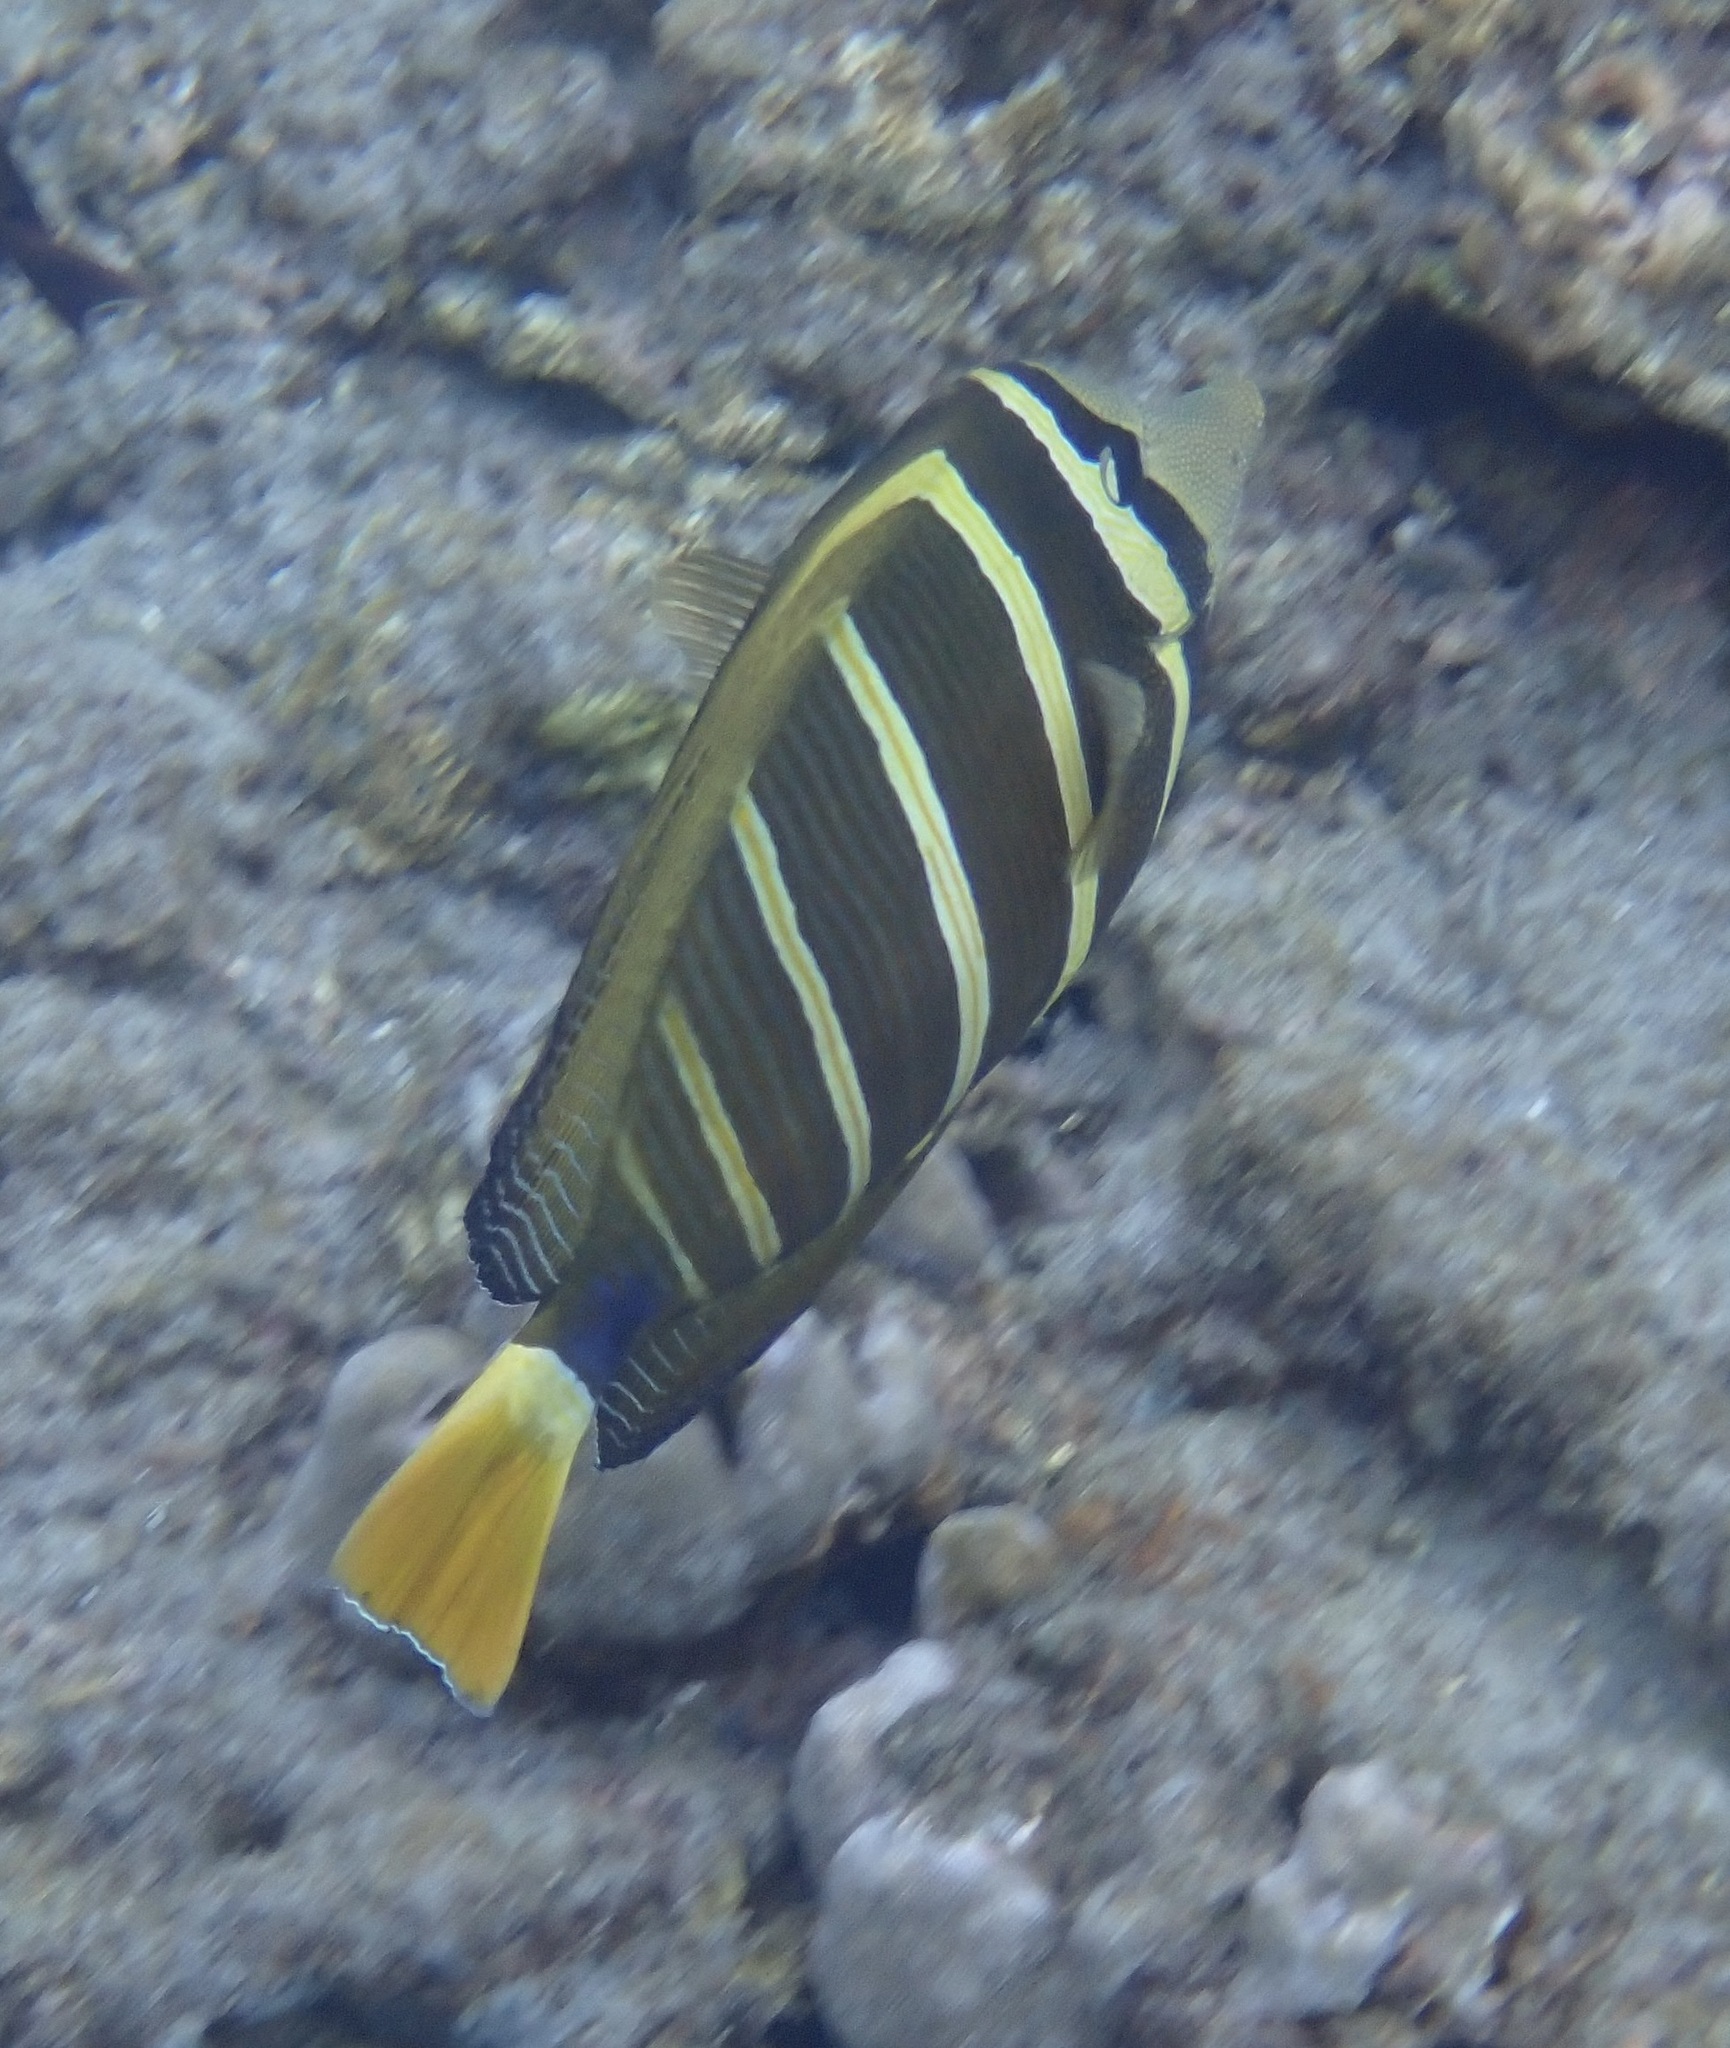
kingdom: Animalia
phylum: Chordata
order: Perciformes
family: Acanthuridae
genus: Zebrasoma
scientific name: Zebrasoma veliferum
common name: Sailfin surgeonfish
